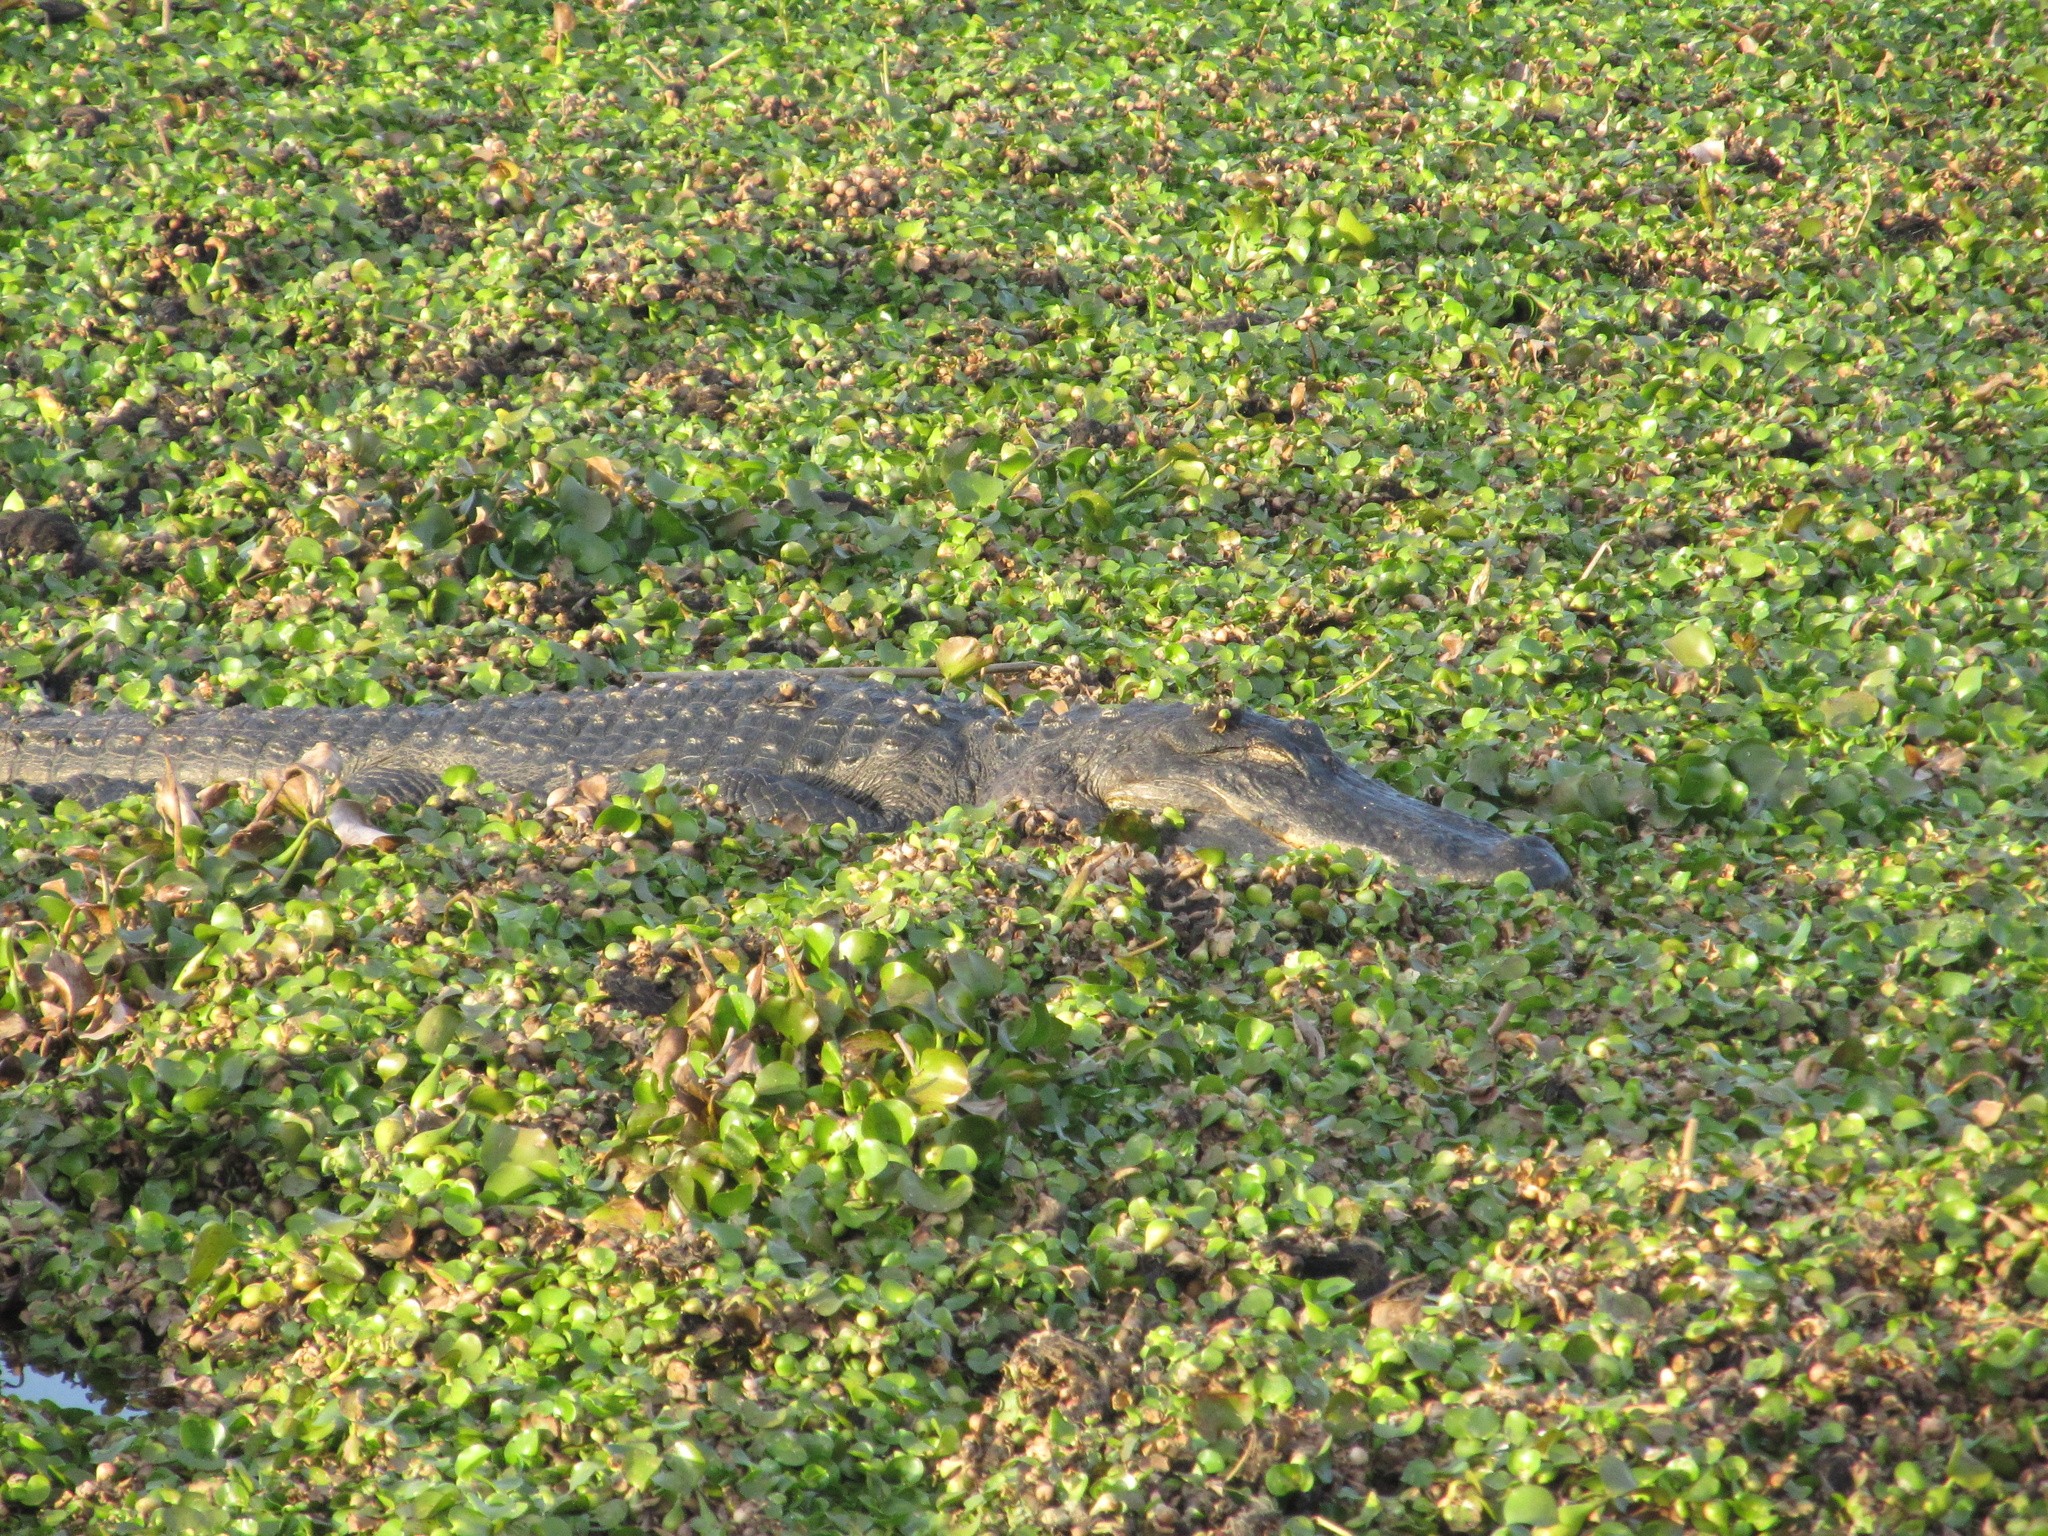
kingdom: Animalia
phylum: Chordata
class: Crocodylia
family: Alligatoridae
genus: Alligator
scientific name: Alligator mississippiensis
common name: American alligator
